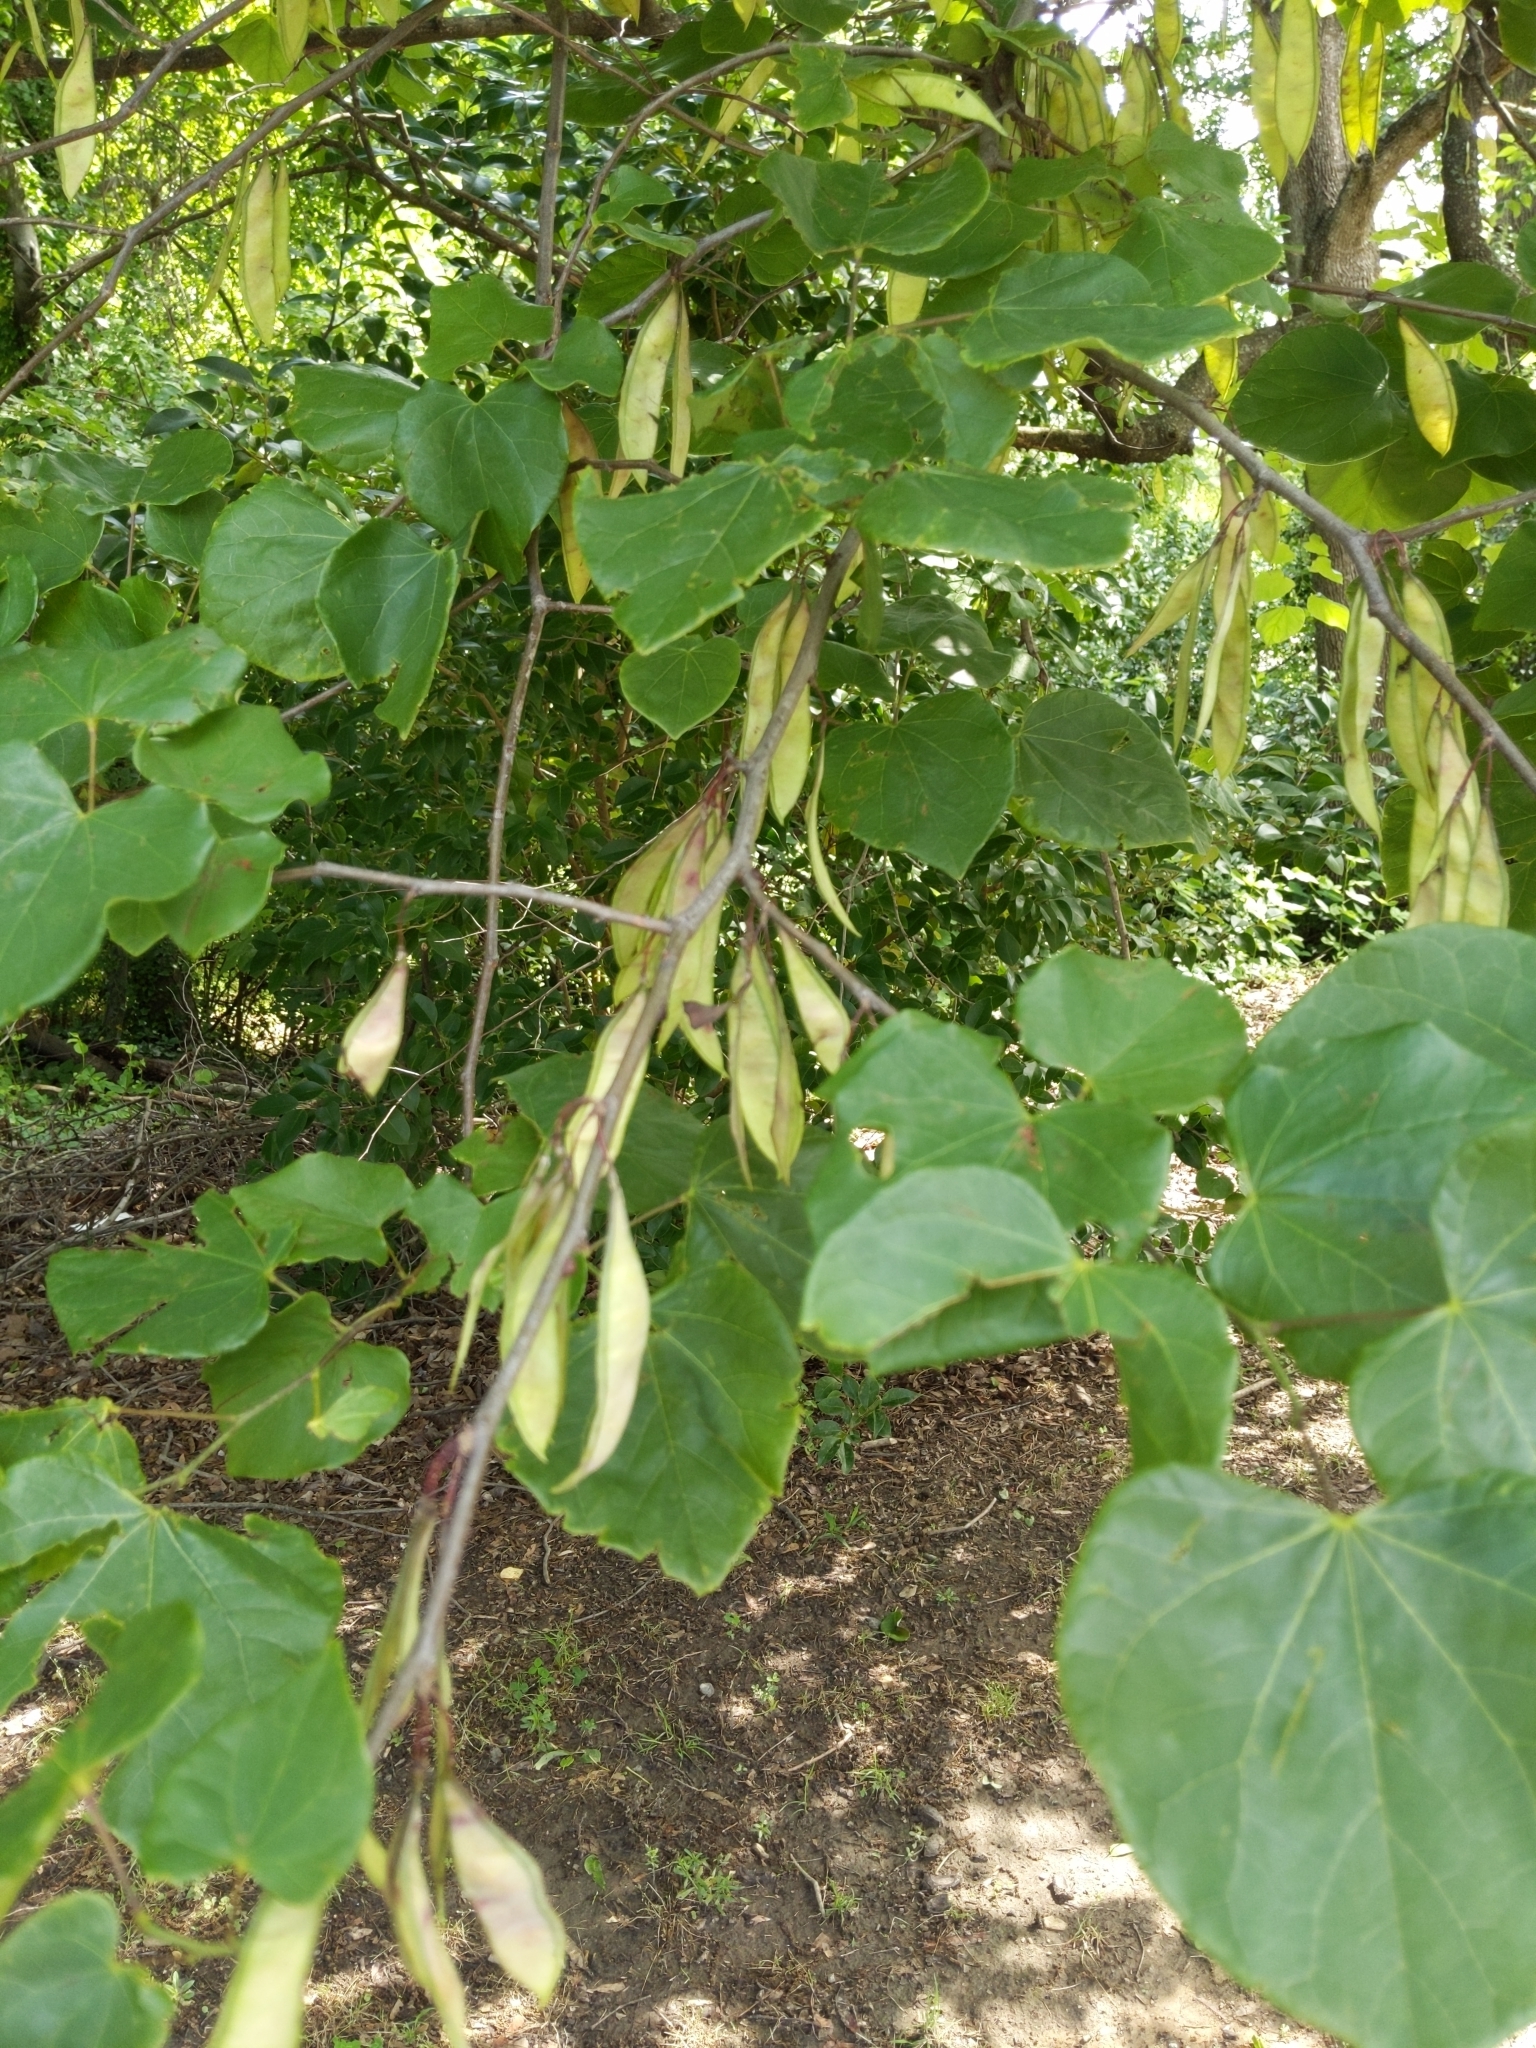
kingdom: Plantae
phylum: Tracheophyta
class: Magnoliopsida
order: Fabales
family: Fabaceae
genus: Cercis
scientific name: Cercis canadensis
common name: Eastern redbud
